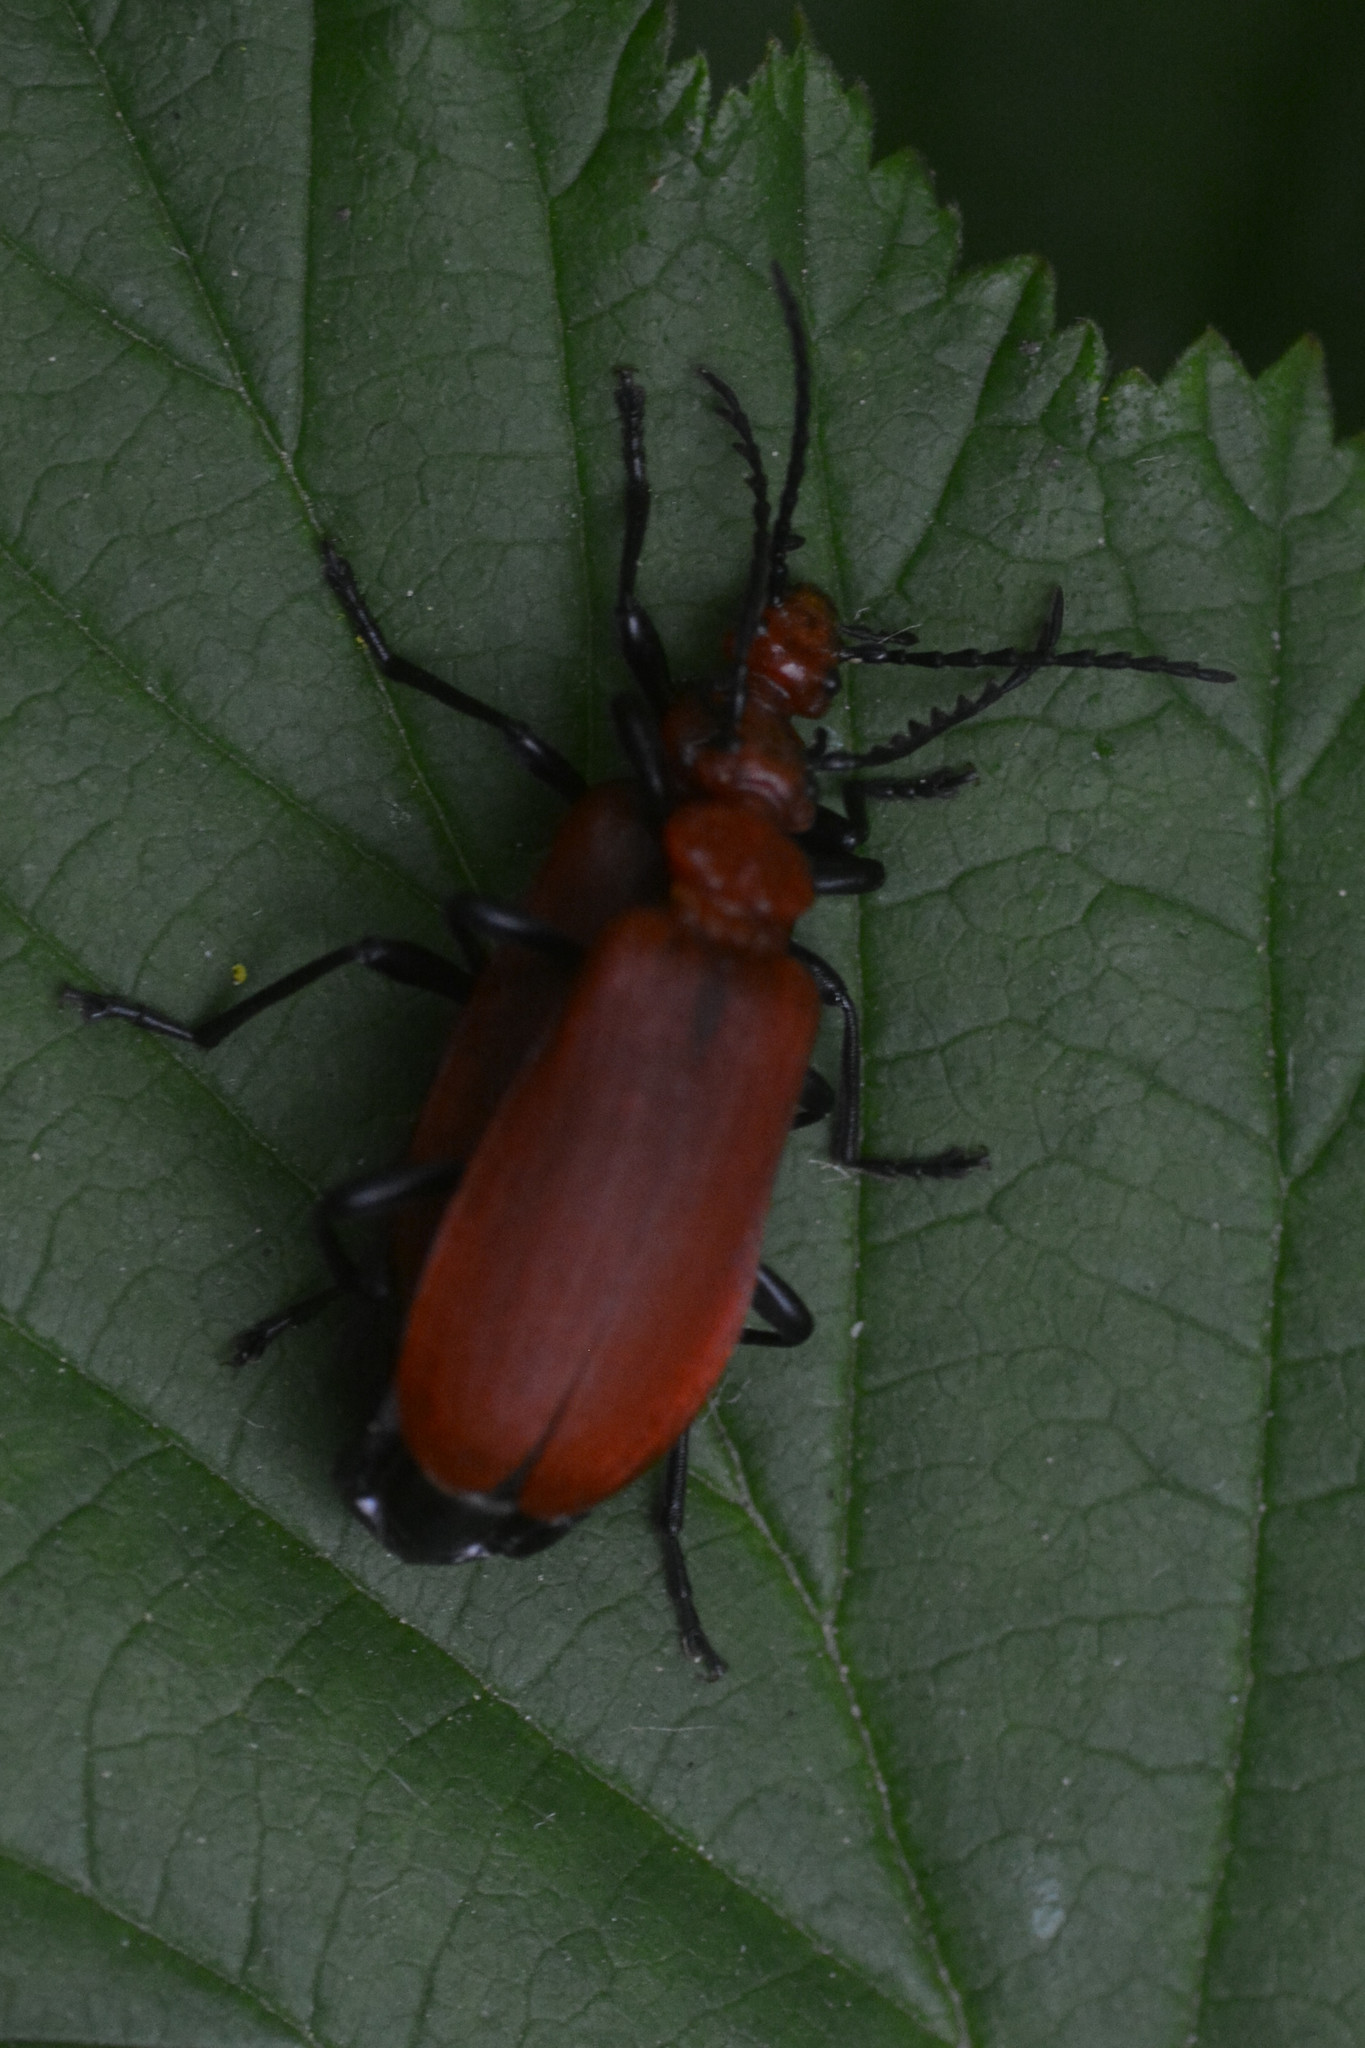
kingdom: Animalia
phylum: Arthropoda
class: Insecta
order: Coleoptera
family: Pyrochroidae
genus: Pyrochroa
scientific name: Pyrochroa serraticornis
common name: Red-headed cardinal beetle
